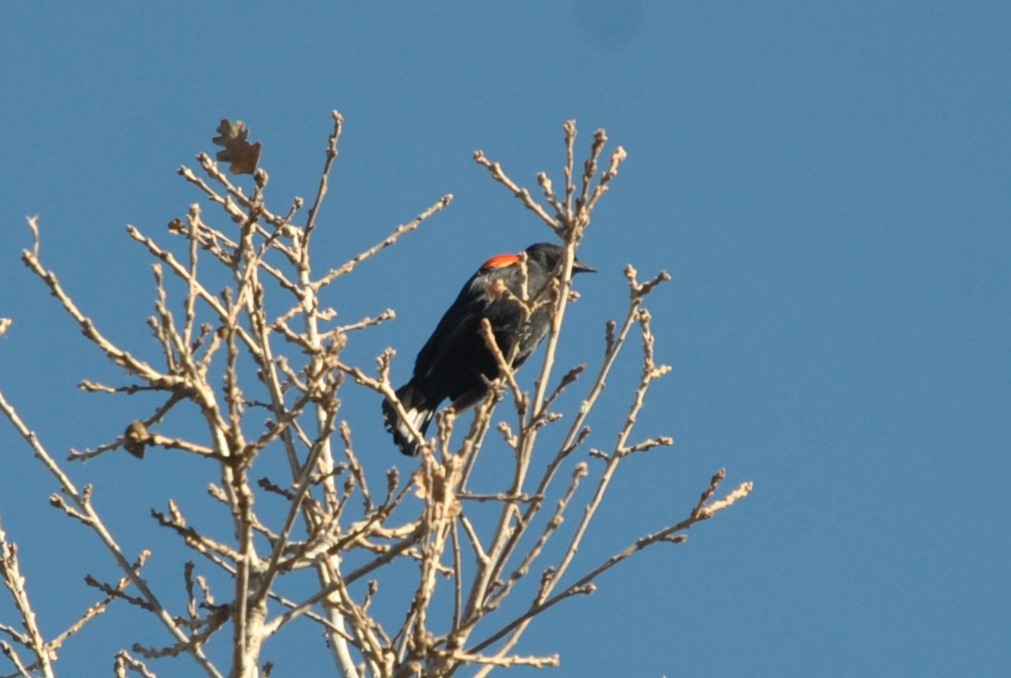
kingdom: Animalia
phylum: Chordata
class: Aves
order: Passeriformes
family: Icteridae
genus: Agelaius
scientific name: Agelaius phoeniceus
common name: Red-winged blackbird
